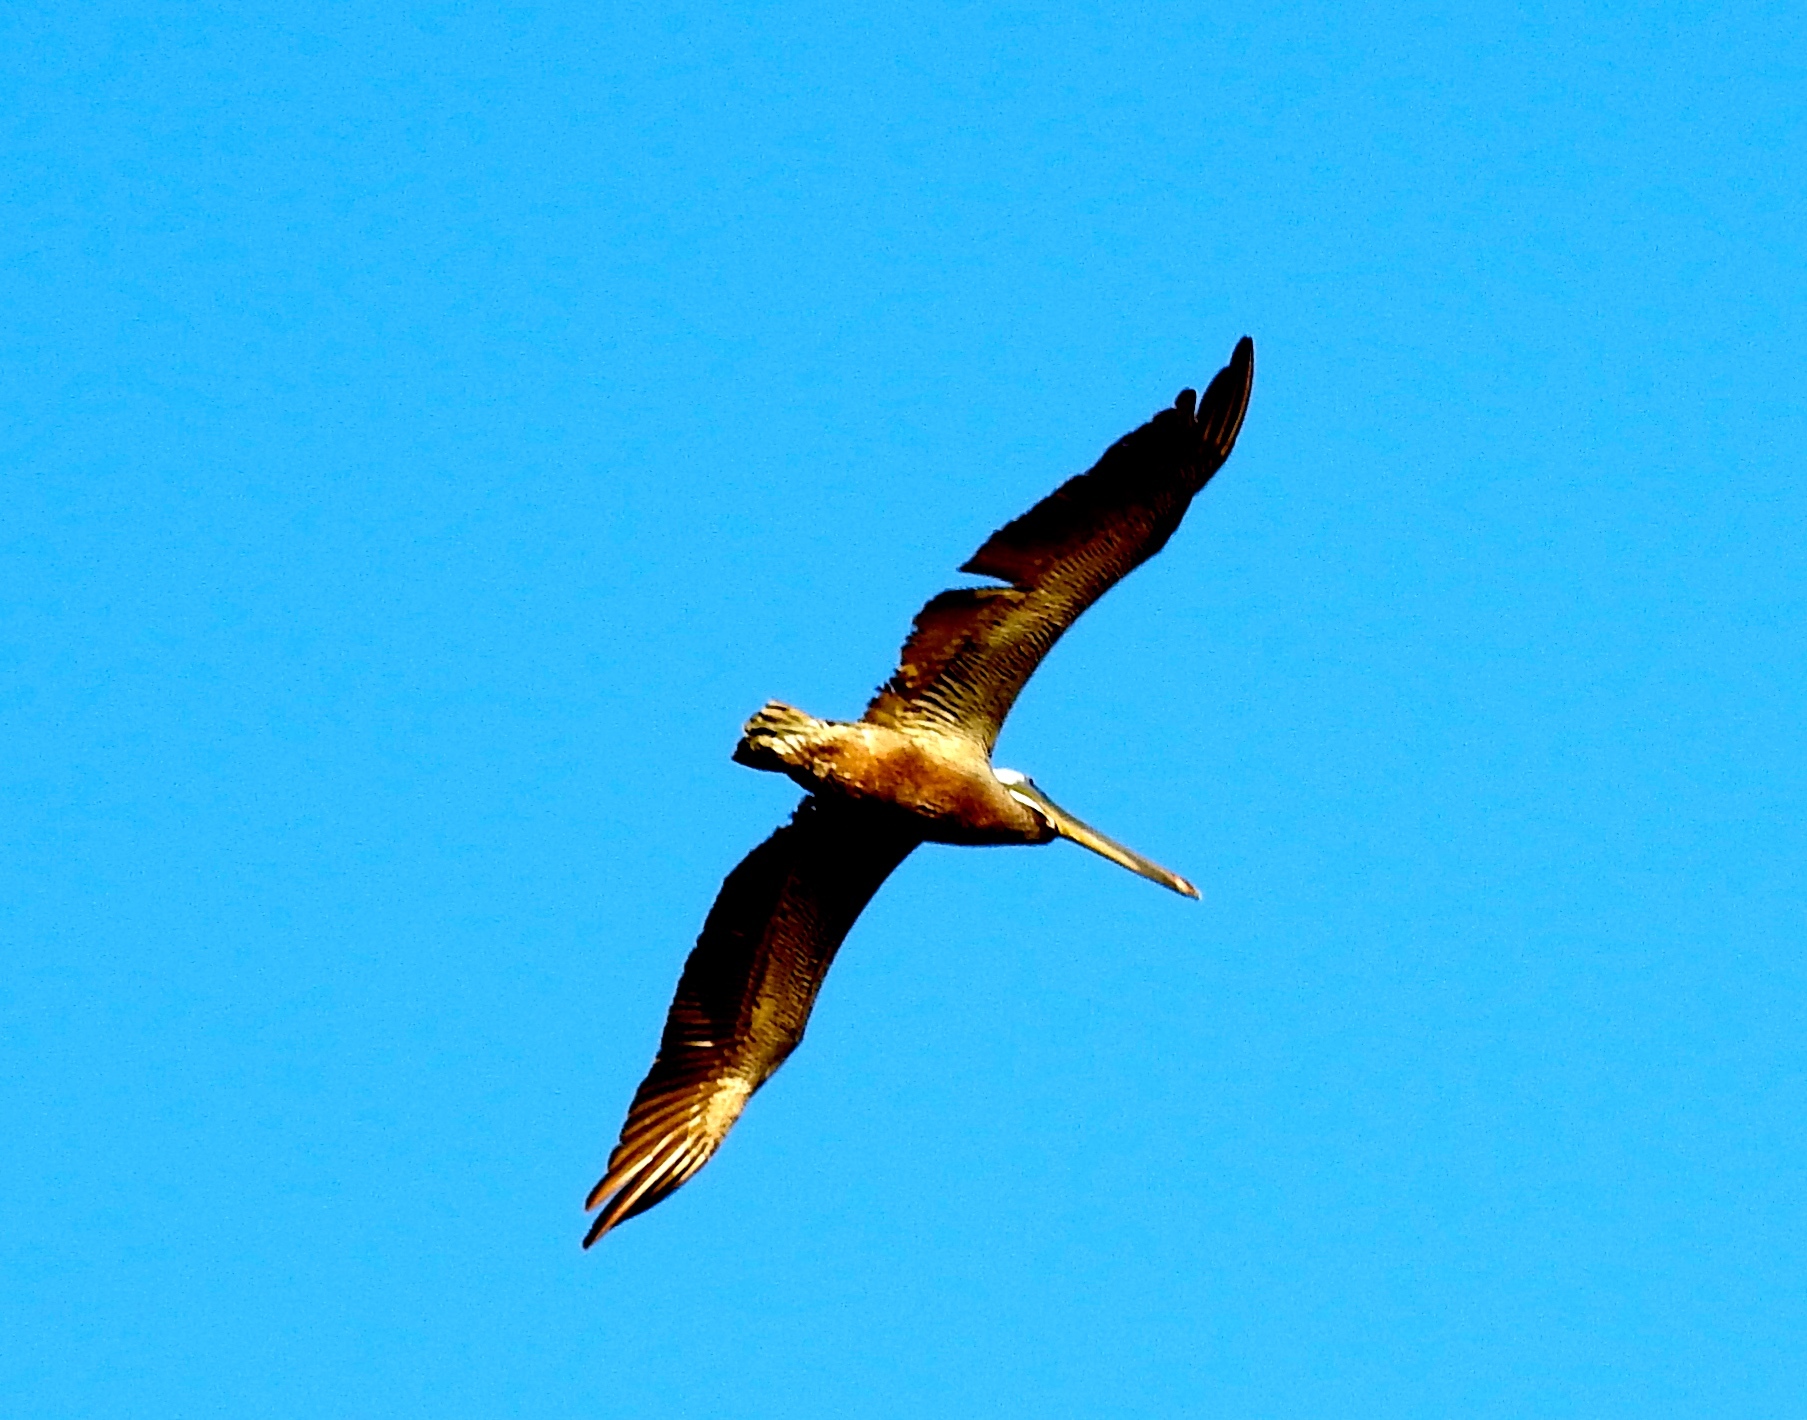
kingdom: Animalia
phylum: Chordata
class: Aves
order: Pelecaniformes
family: Pelecanidae
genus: Pelecanus
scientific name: Pelecanus occidentalis
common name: Brown pelican
